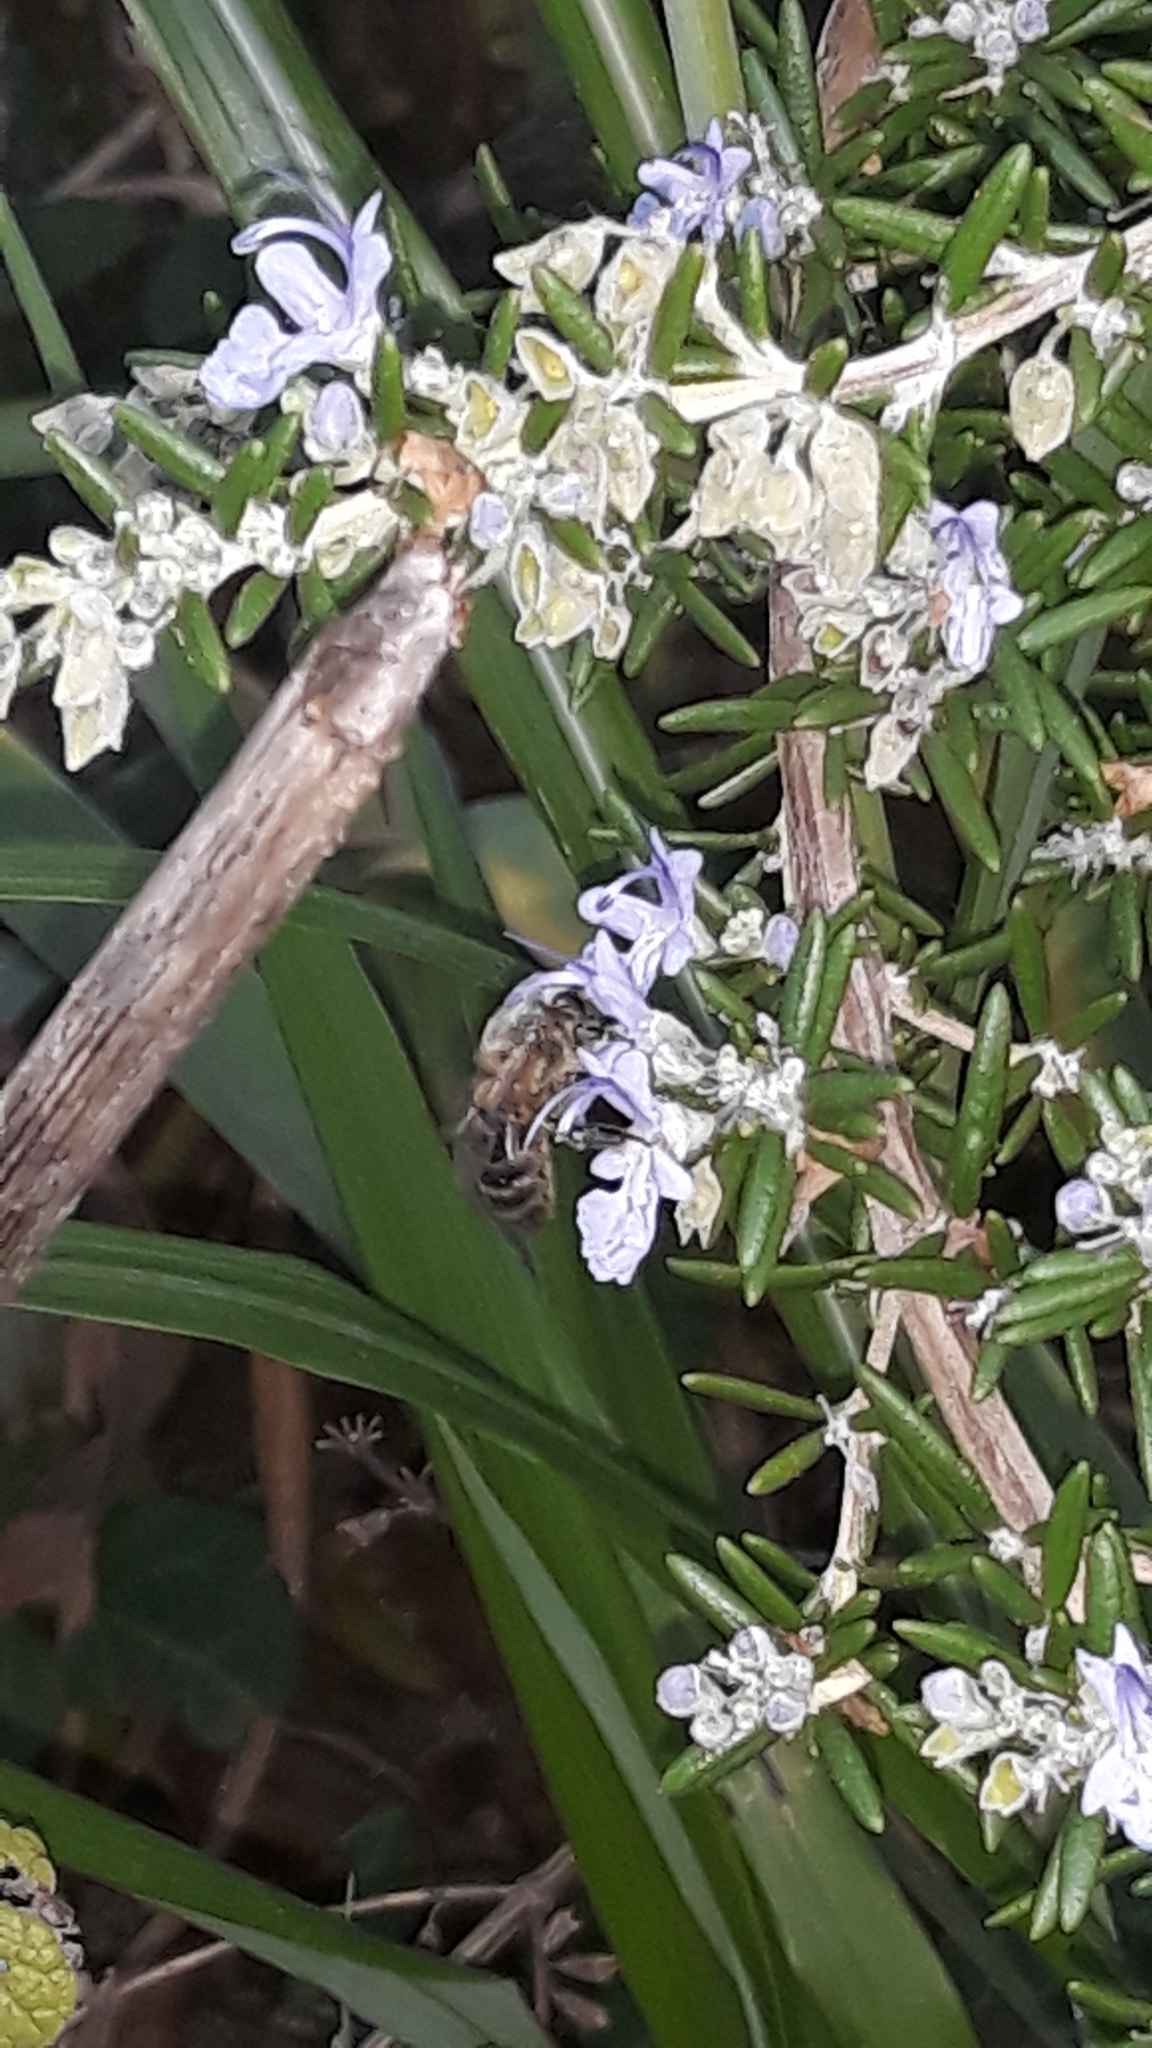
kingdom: Animalia
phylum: Arthropoda
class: Insecta
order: Hymenoptera
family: Apidae
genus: Apis
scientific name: Apis mellifera
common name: Honey bee
